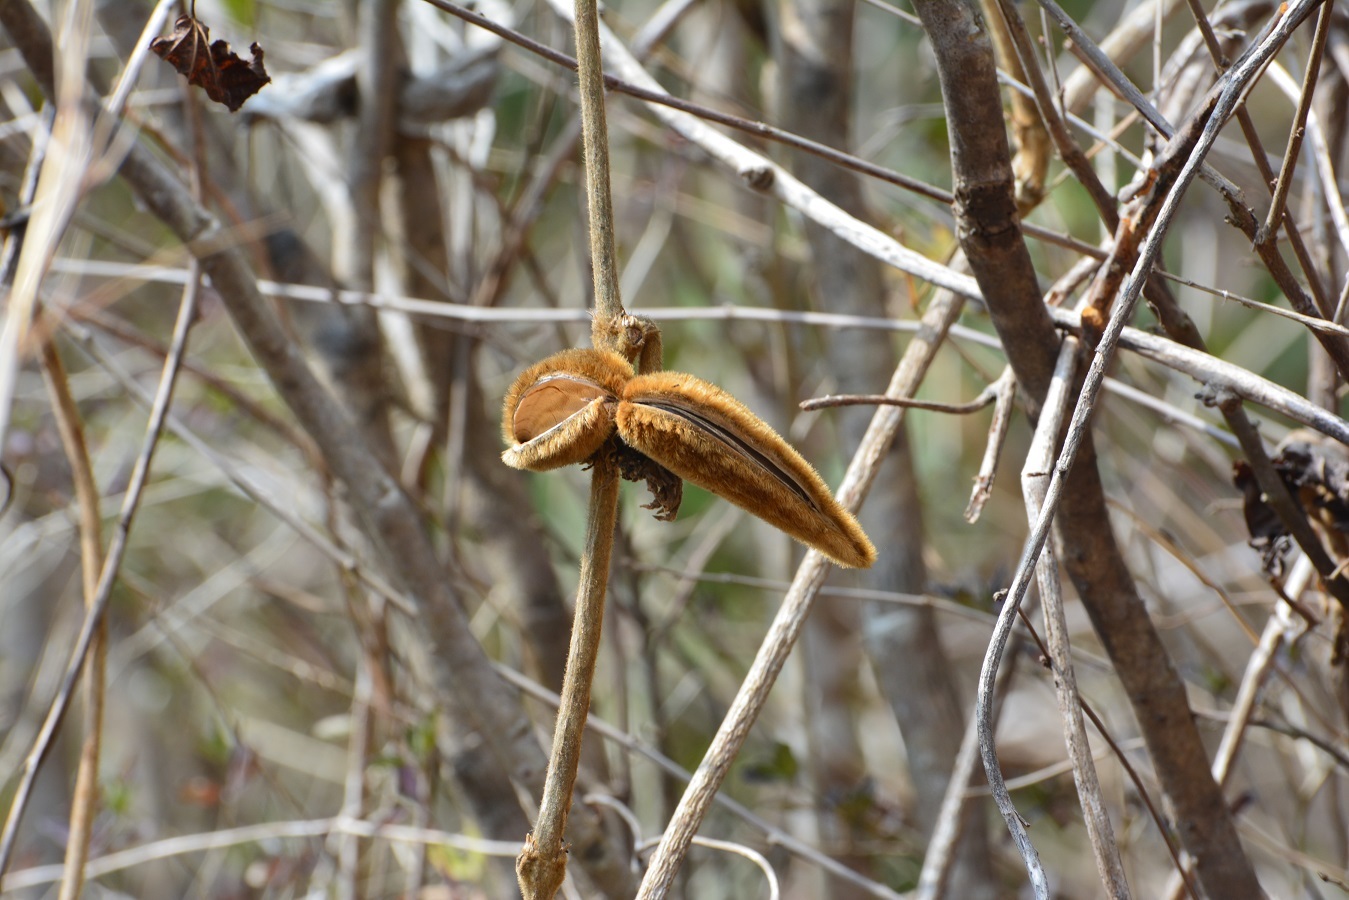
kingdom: Plantae
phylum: Tracheophyta
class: Magnoliopsida
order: Gentianales
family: Apocynaceae
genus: Prestonia
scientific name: Prestonia mexicana
